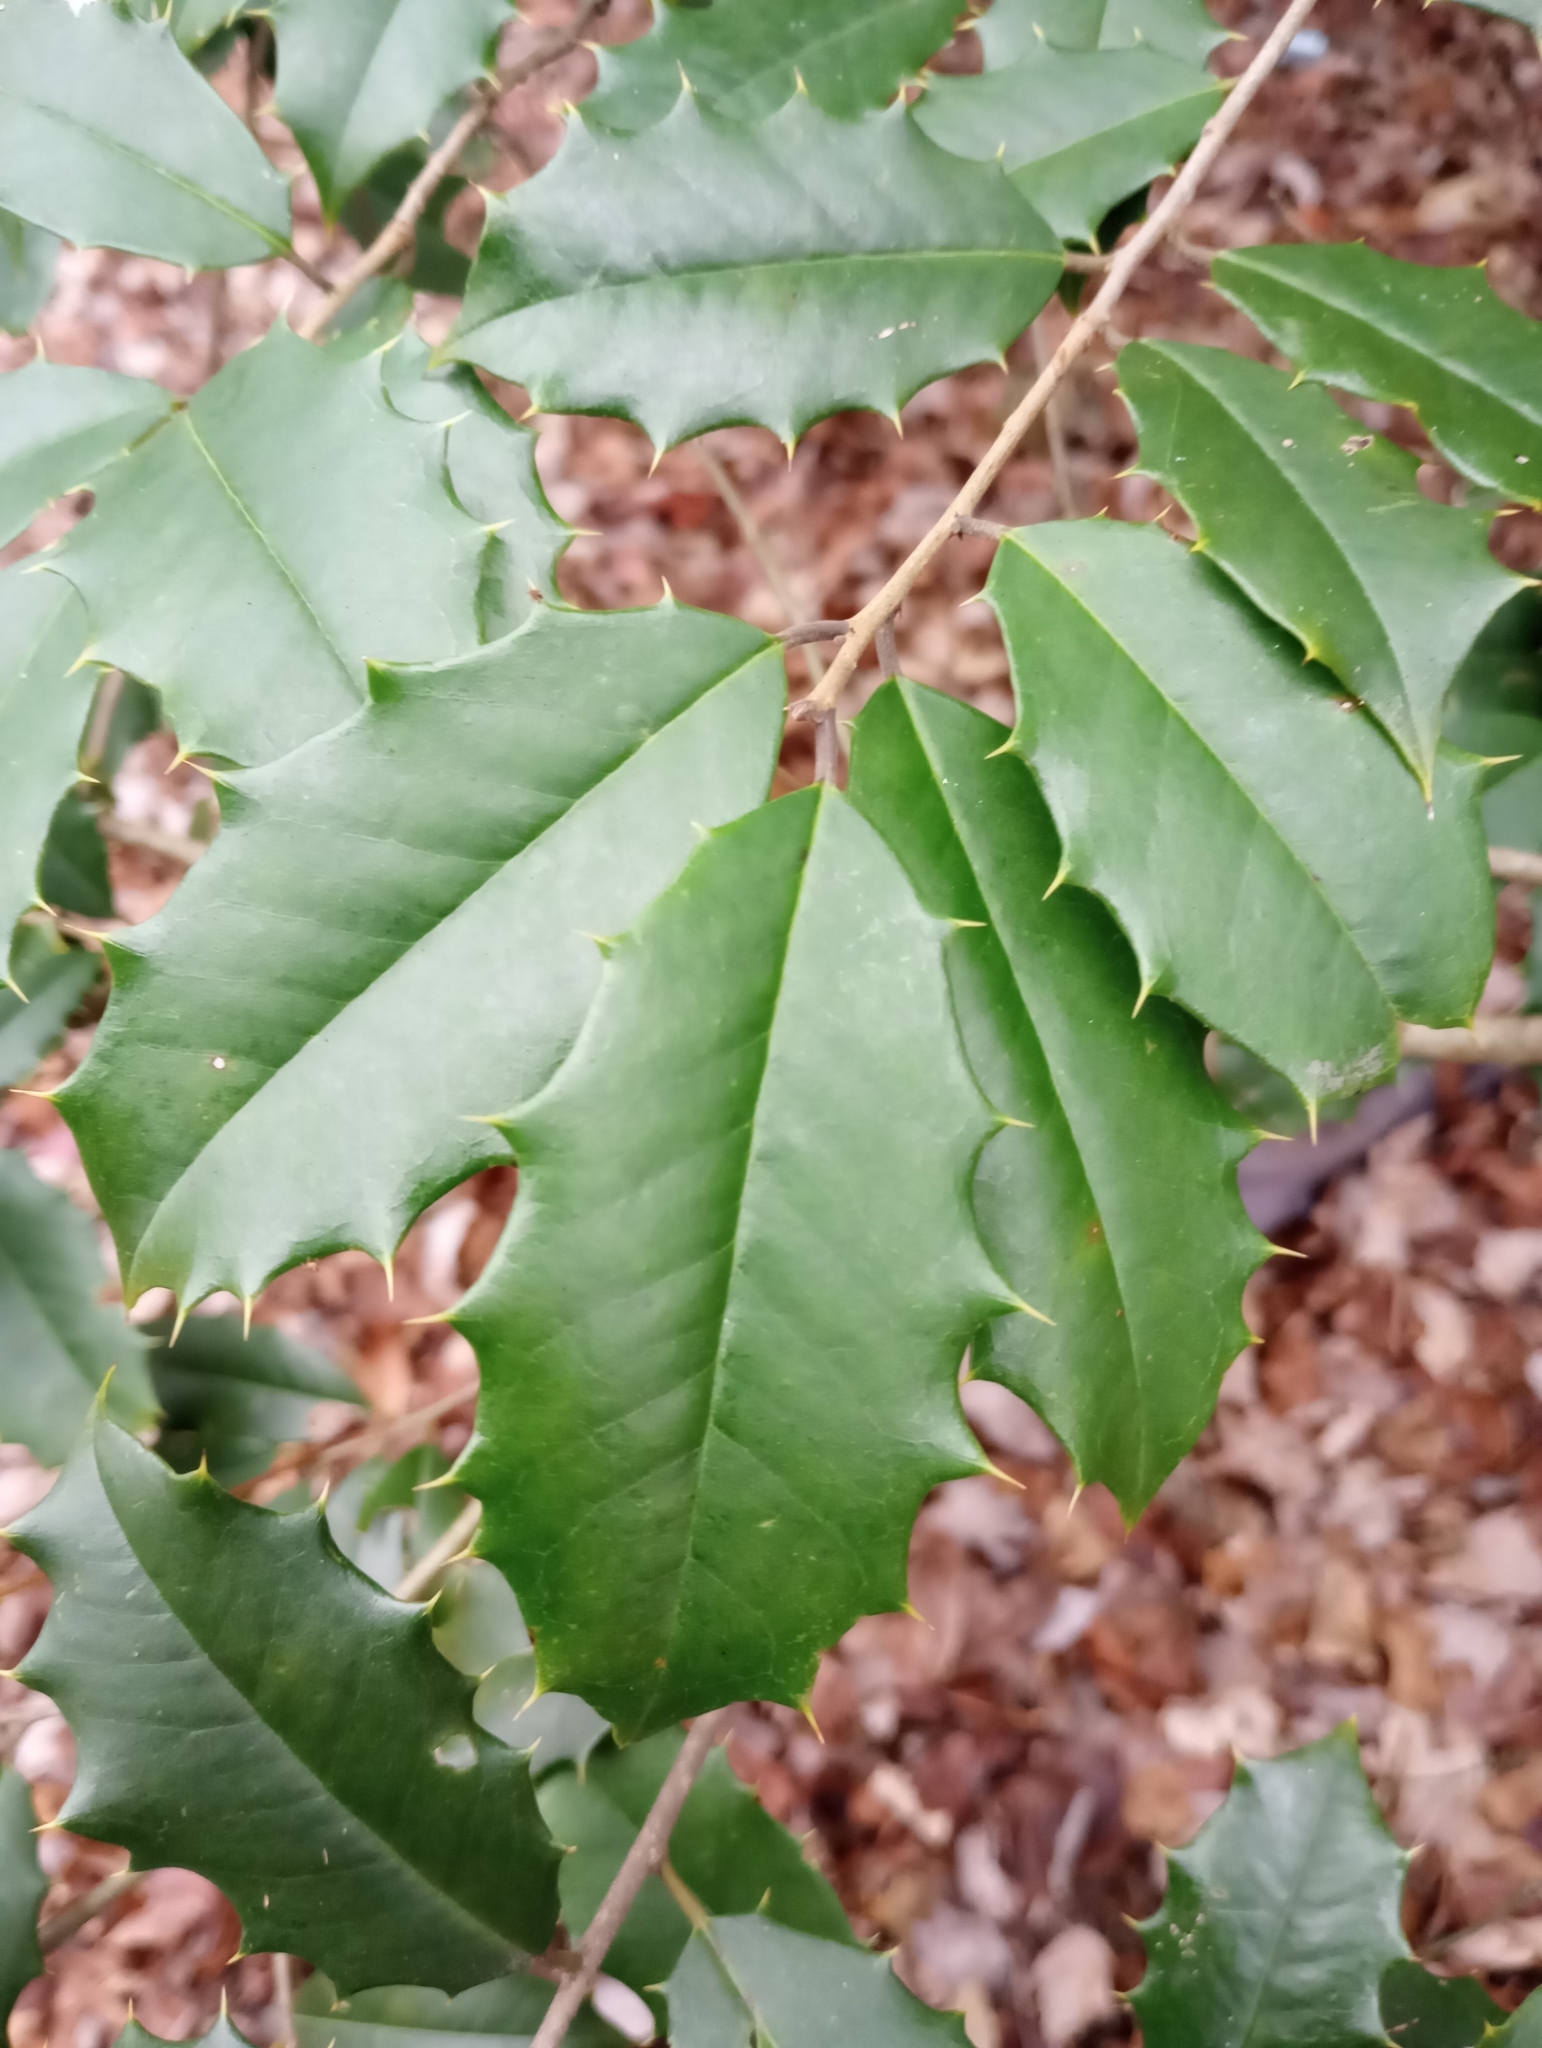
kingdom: Plantae
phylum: Tracheophyta
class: Magnoliopsida
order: Aquifoliales
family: Aquifoliaceae
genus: Ilex
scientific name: Ilex opaca
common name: American holly
